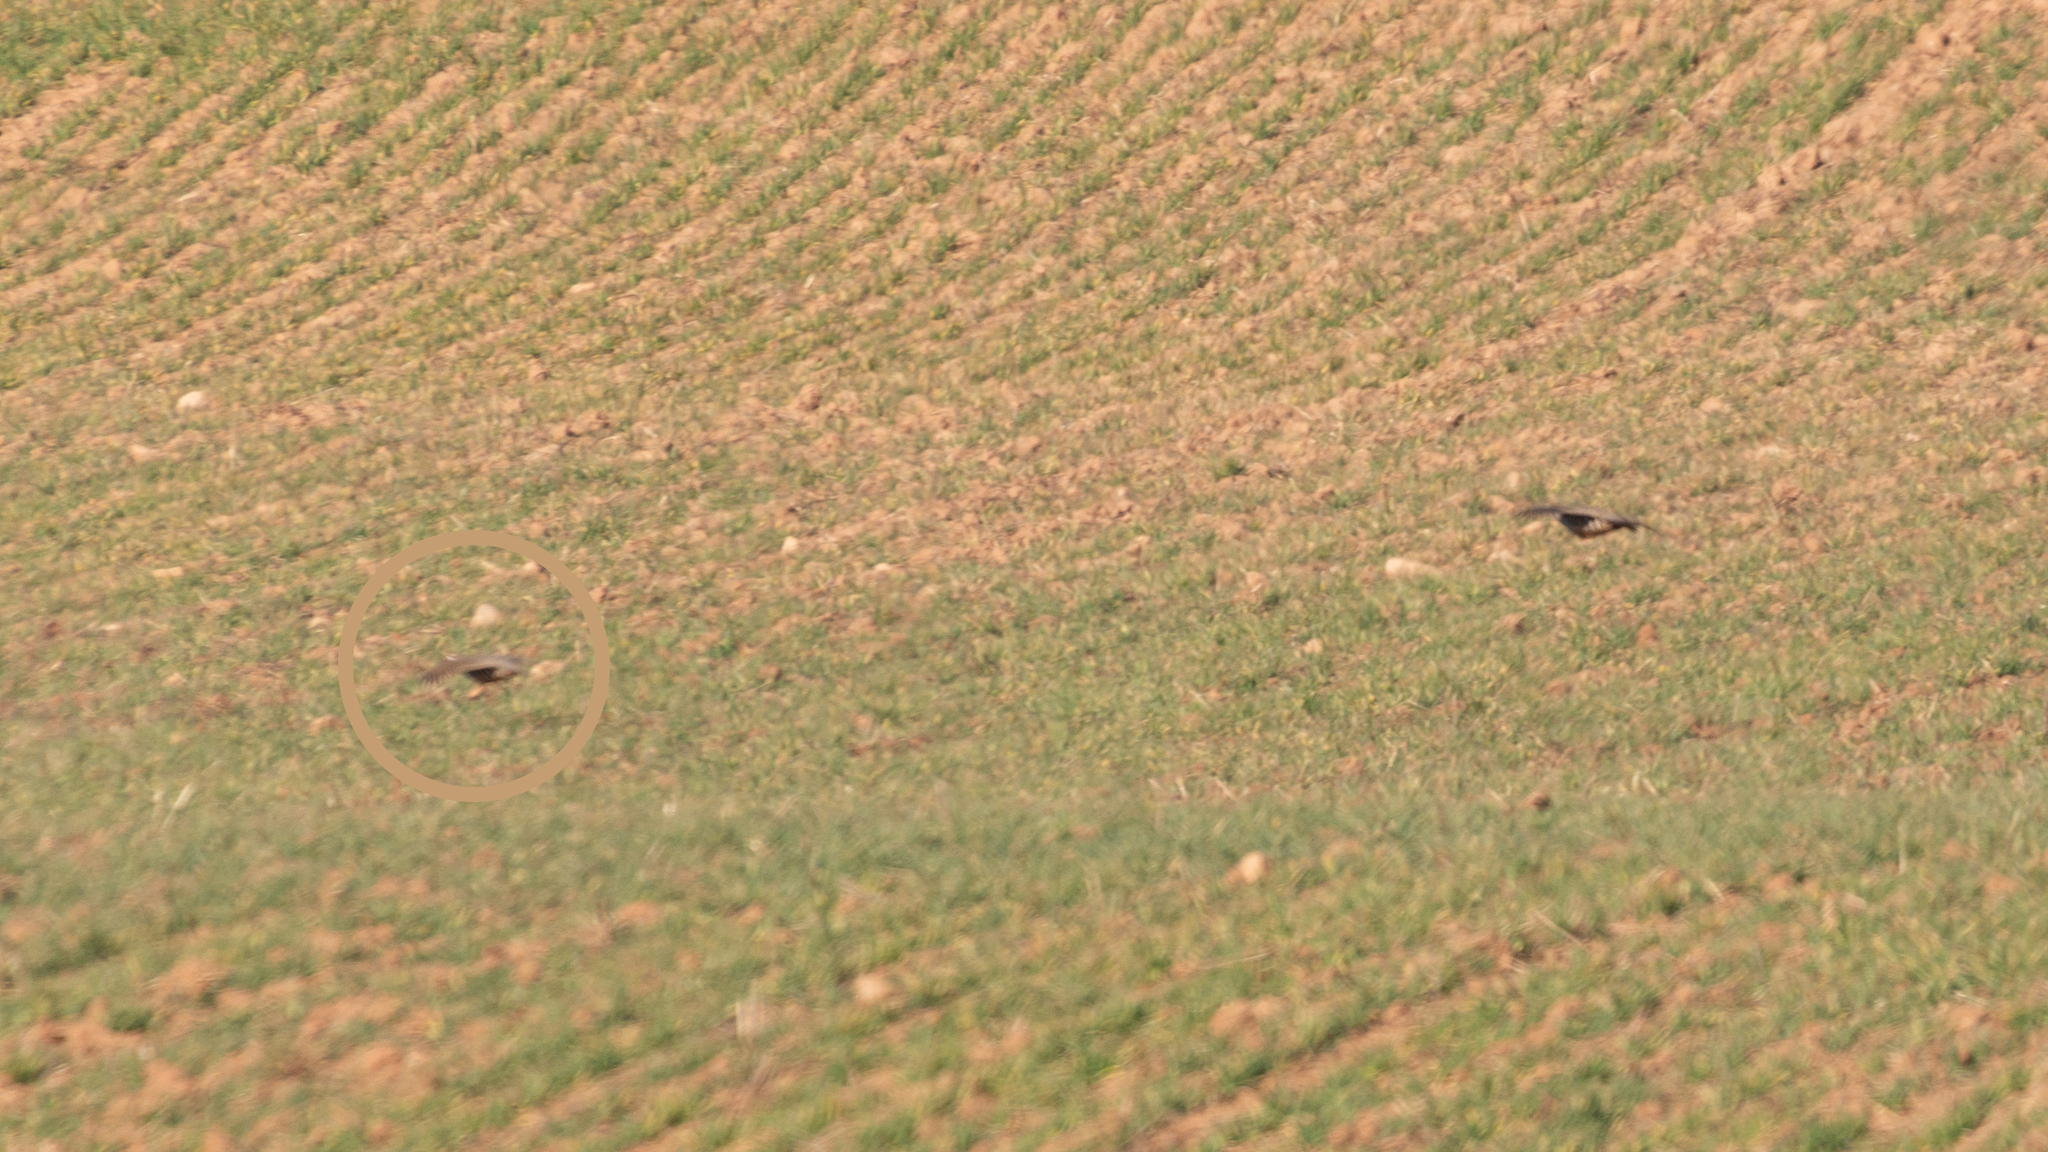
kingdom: Animalia
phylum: Chordata
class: Aves
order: Galliformes
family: Phasianidae
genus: Alectoris
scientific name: Alectoris rufa
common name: Red-legged partridge
